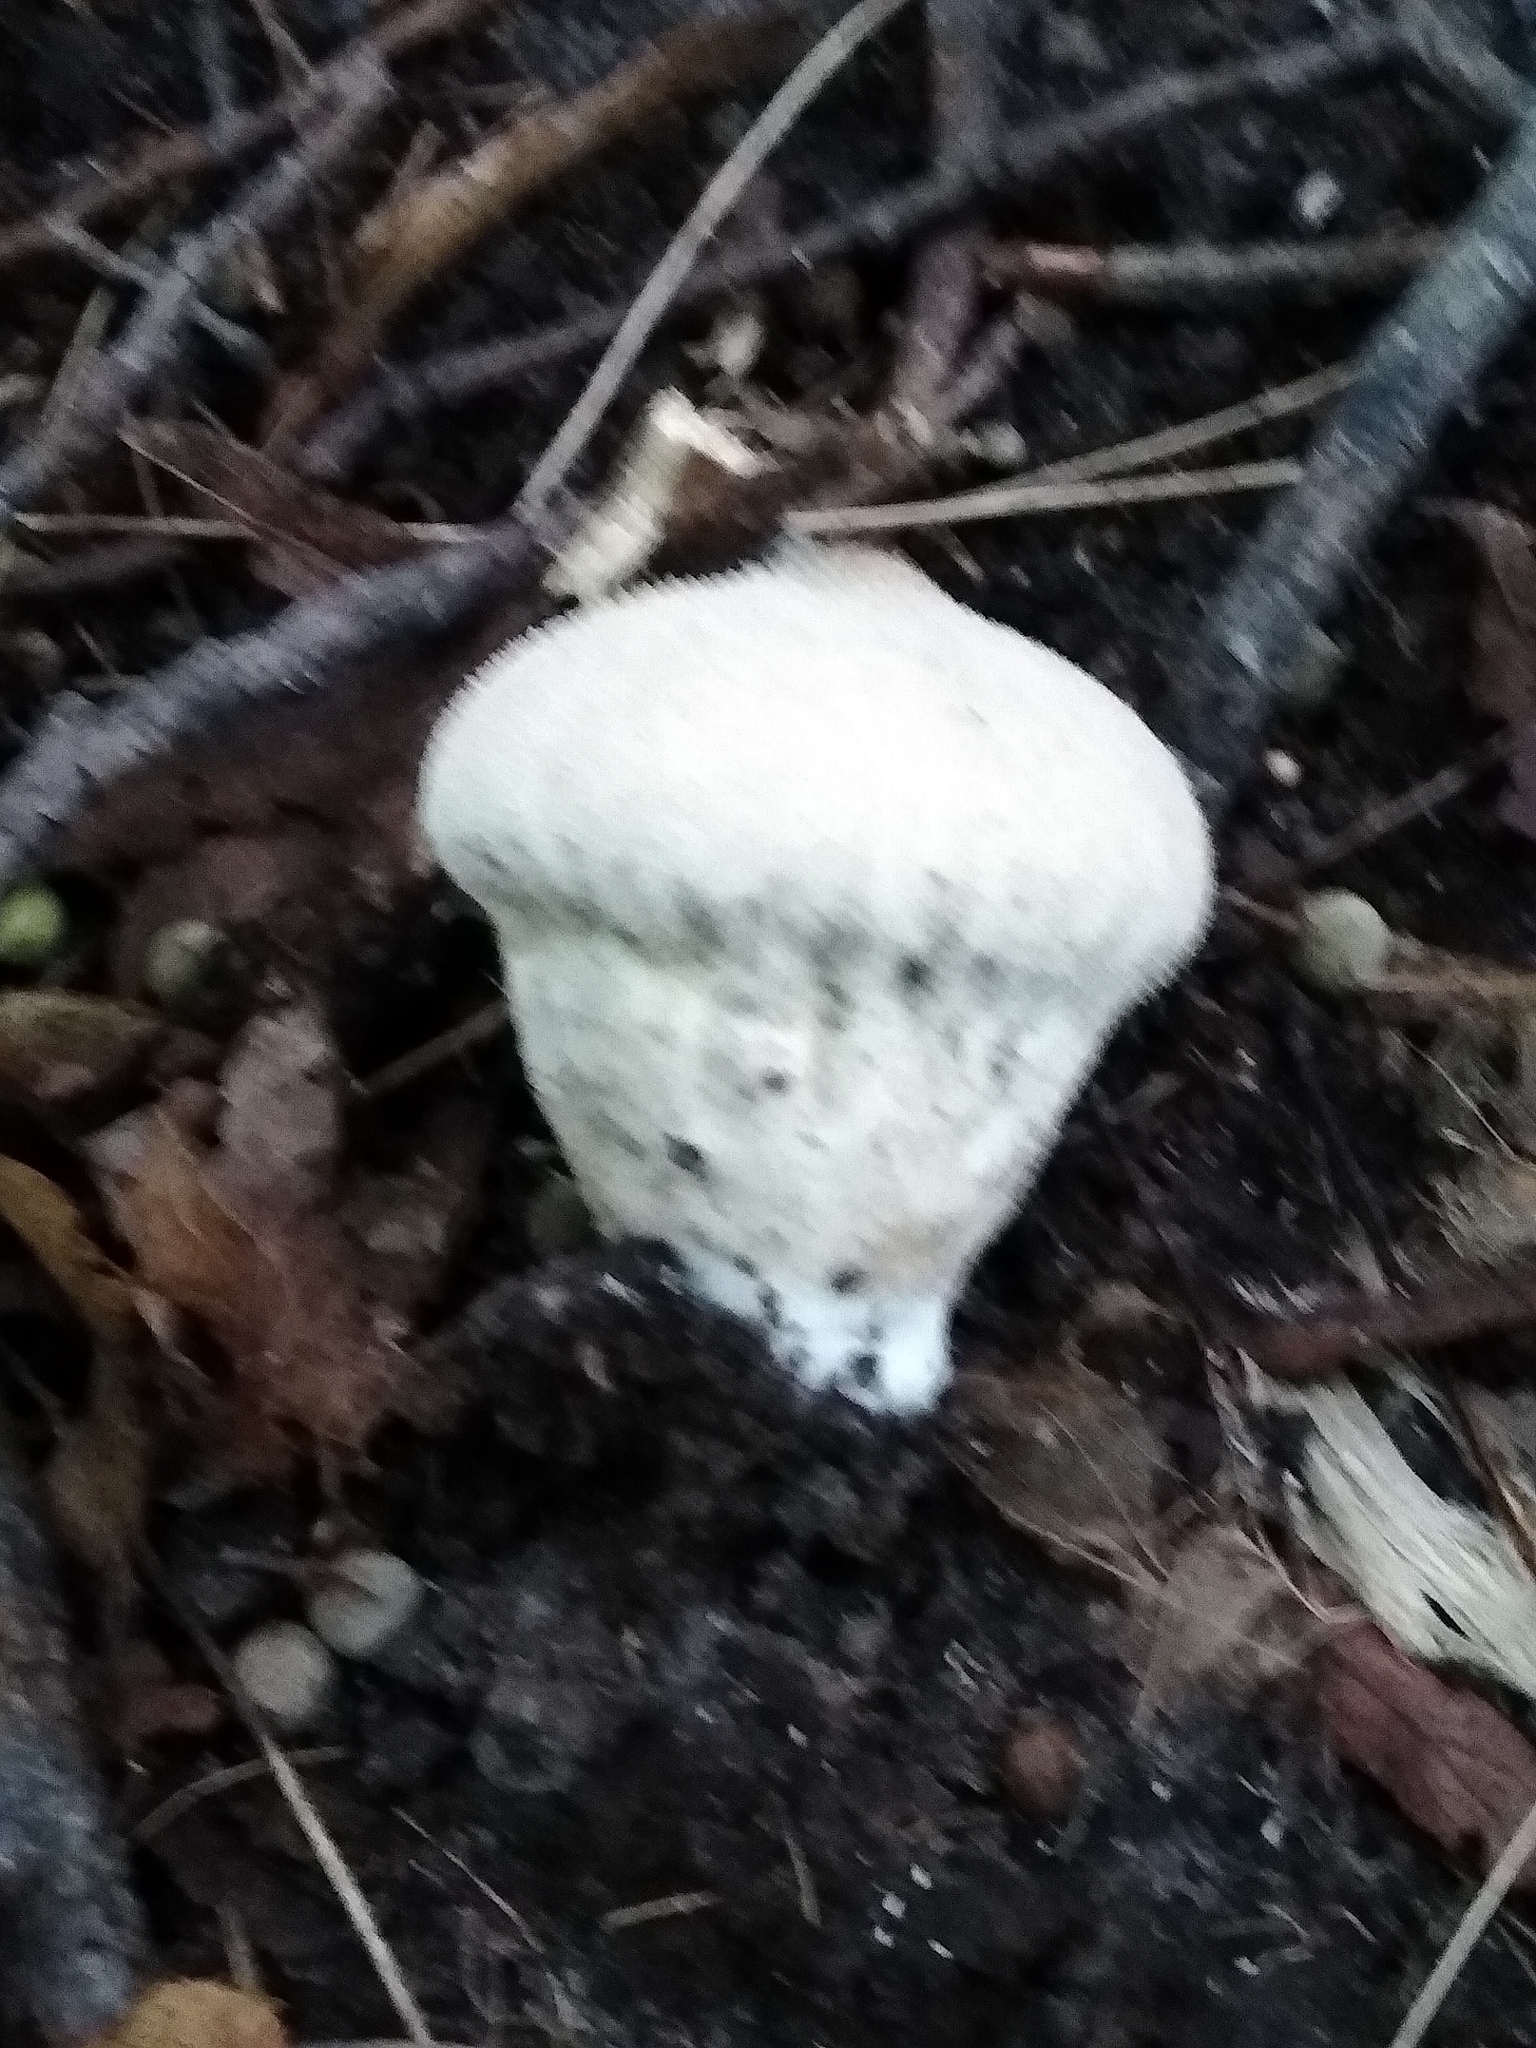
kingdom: Fungi
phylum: Basidiomycota
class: Agaricomycetes
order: Agaricales
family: Lycoperdaceae
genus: Lycoperdon
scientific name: Lycoperdon perlatum
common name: Common puffball
